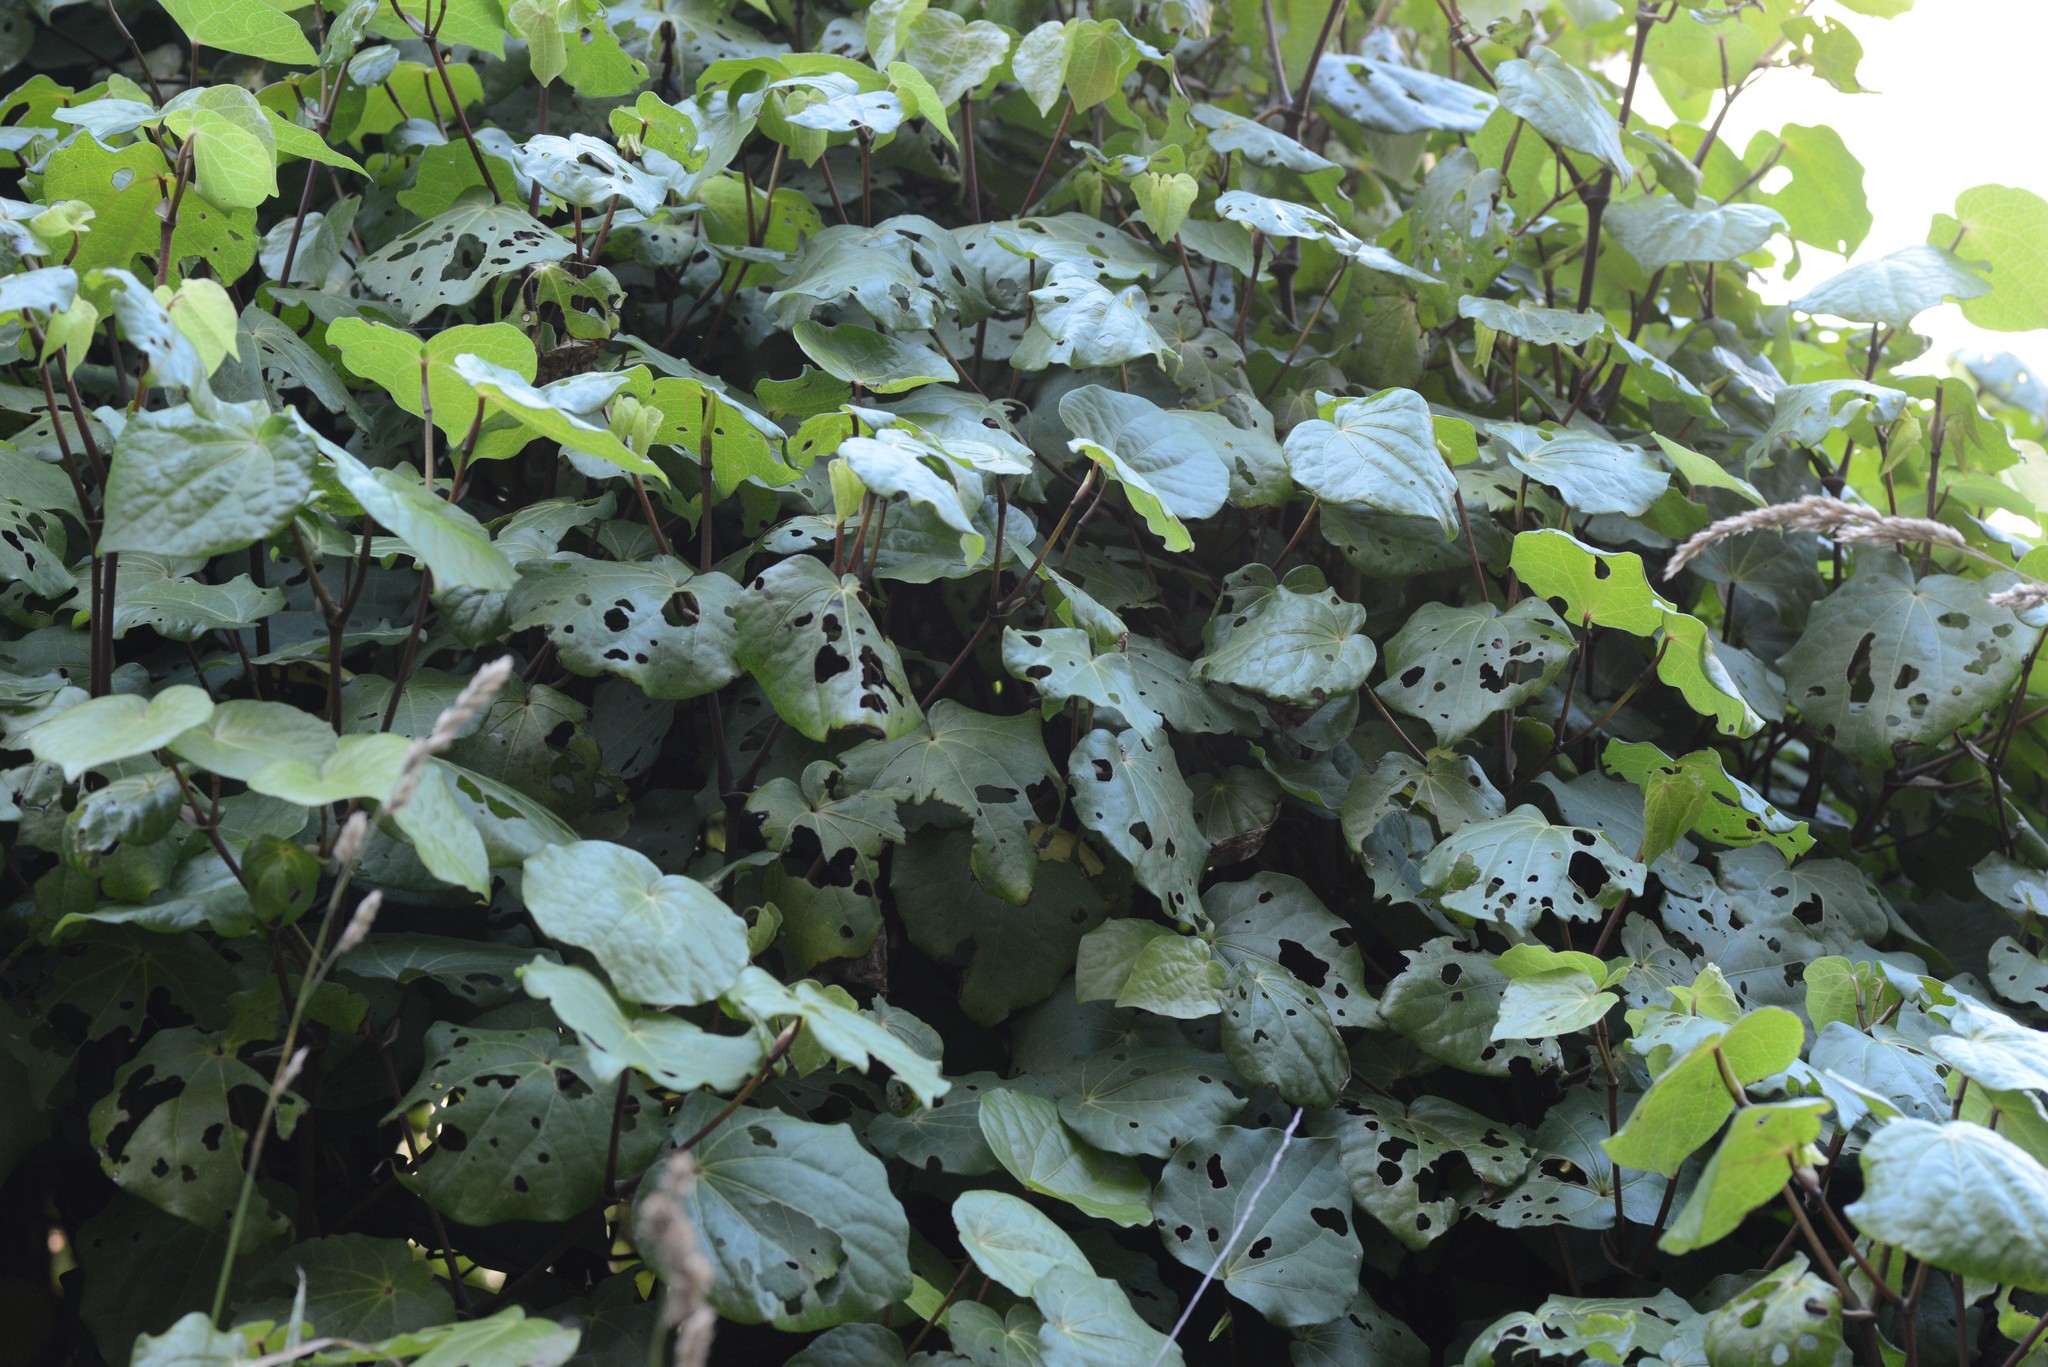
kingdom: Plantae
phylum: Tracheophyta
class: Magnoliopsida
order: Piperales
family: Piperaceae
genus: Macropiper
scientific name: Macropiper excelsum
